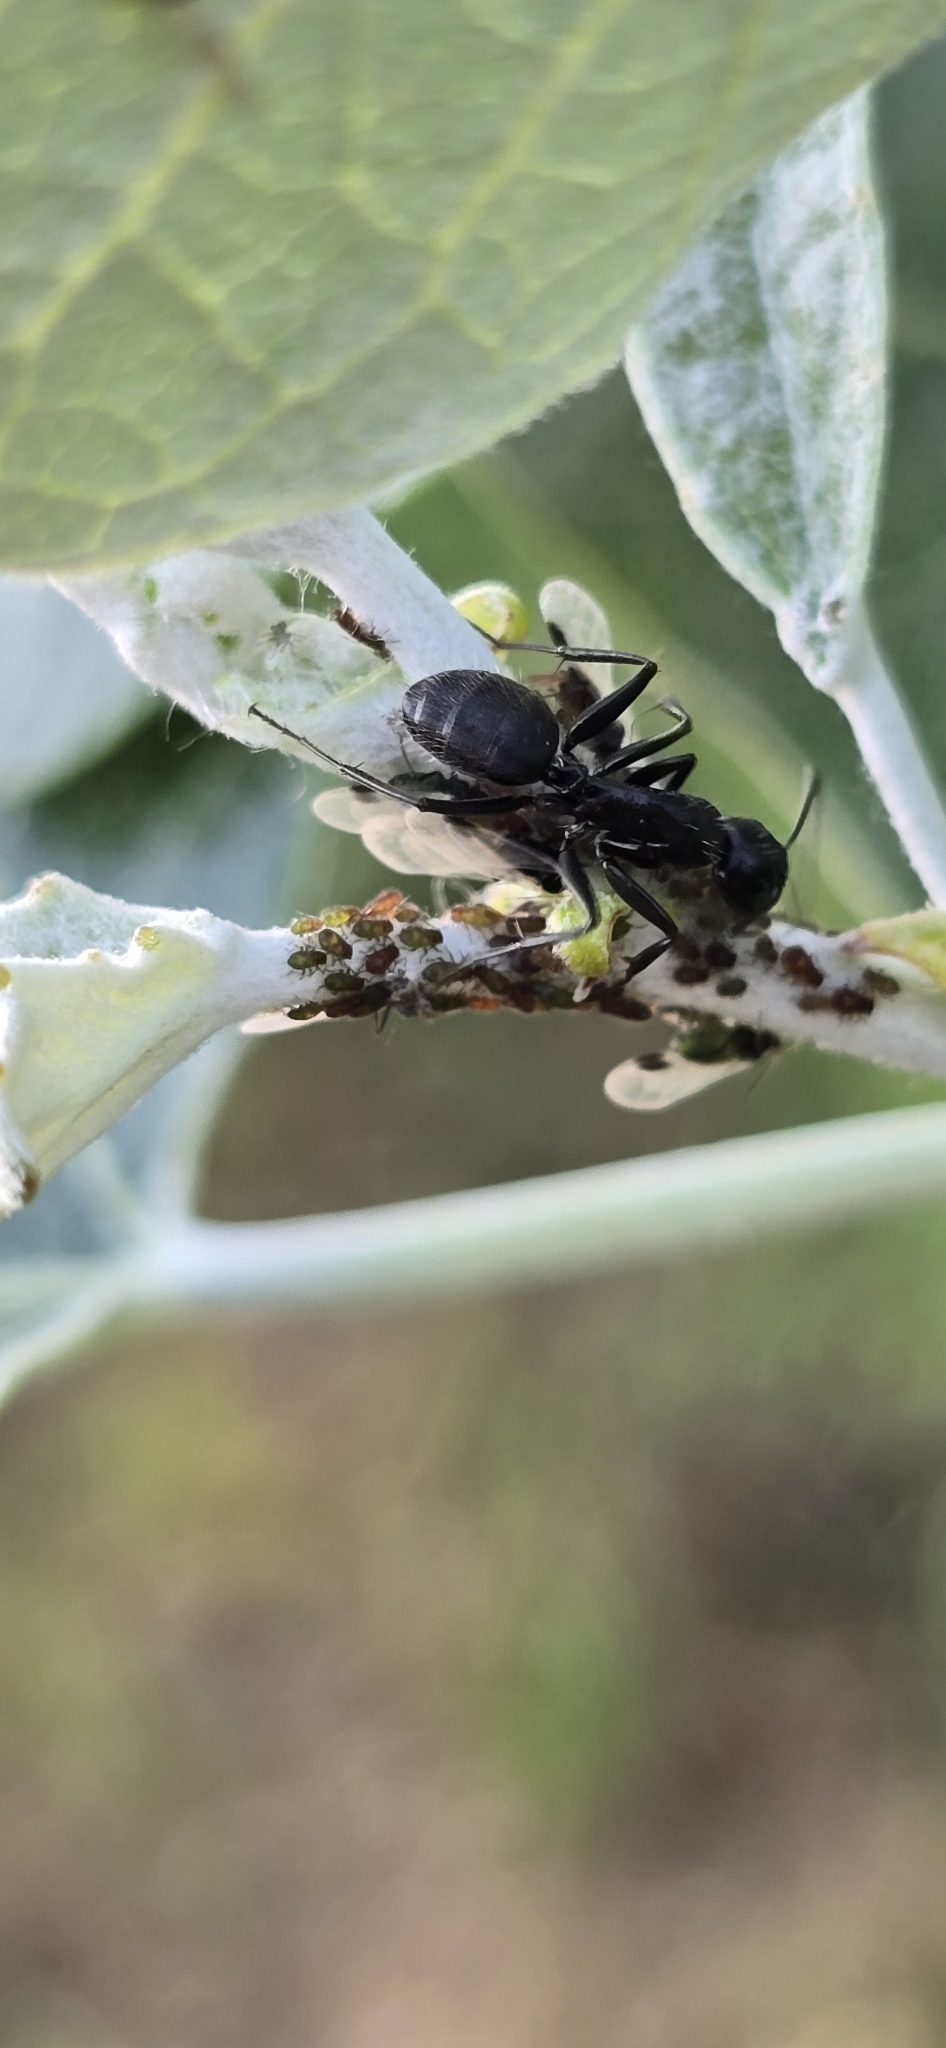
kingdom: Animalia
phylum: Arthropoda
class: Insecta
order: Hymenoptera
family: Formicidae
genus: Camponotus
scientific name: Camponotus vagus
